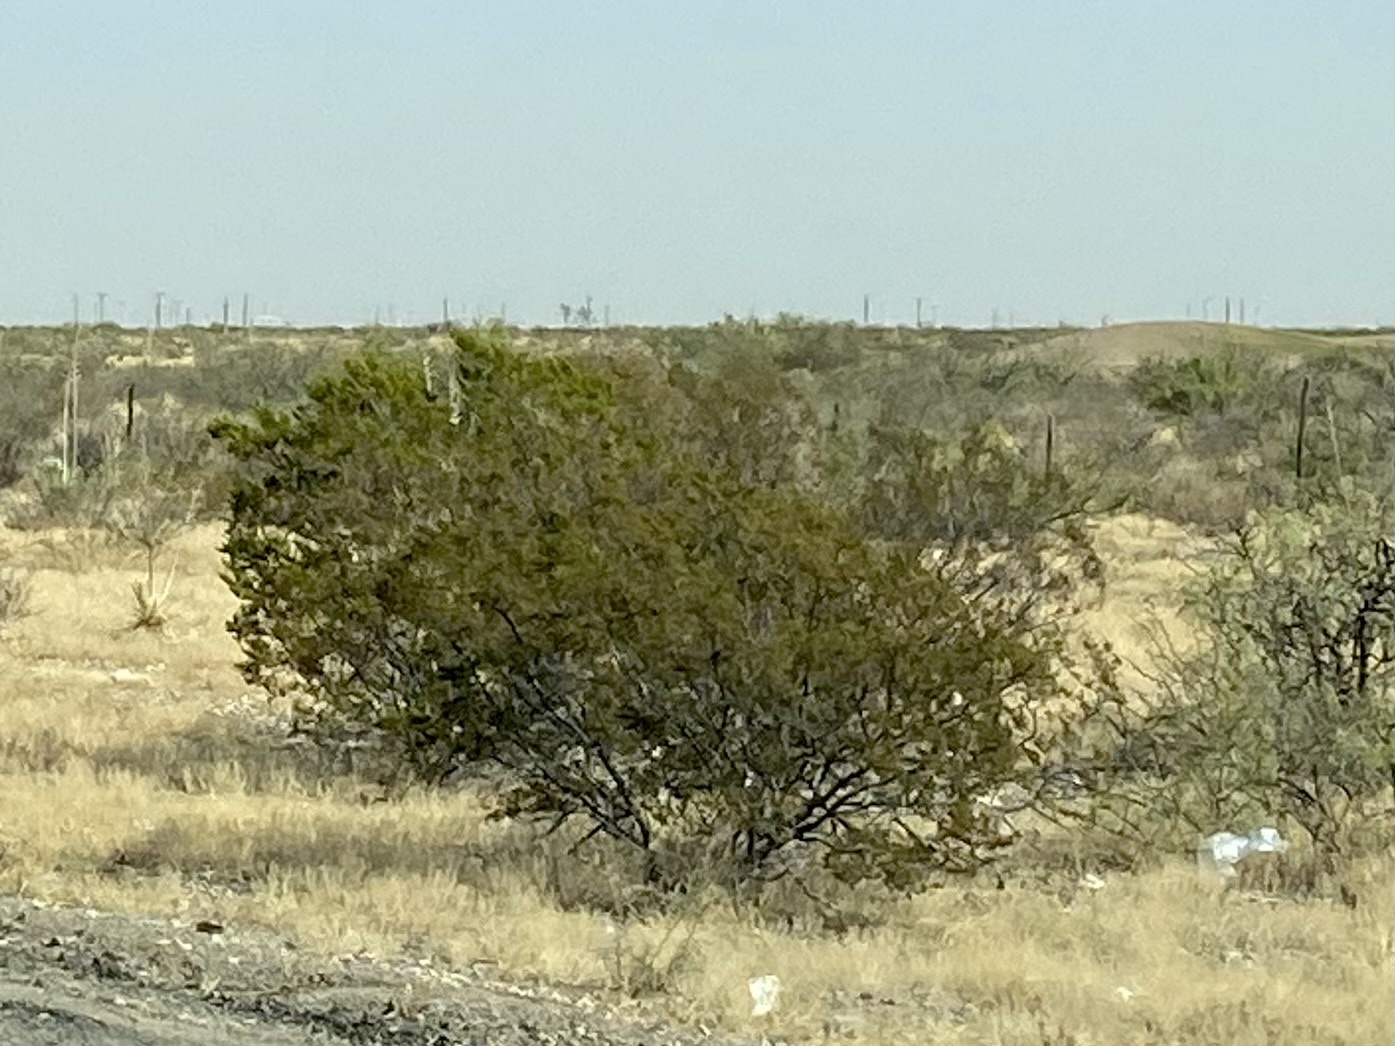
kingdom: Plantae
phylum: Tracheophyta
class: Magnoliopsida
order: Zygophyllales
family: Zygophyllaceae
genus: Larrea
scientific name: Larrea tridentata
